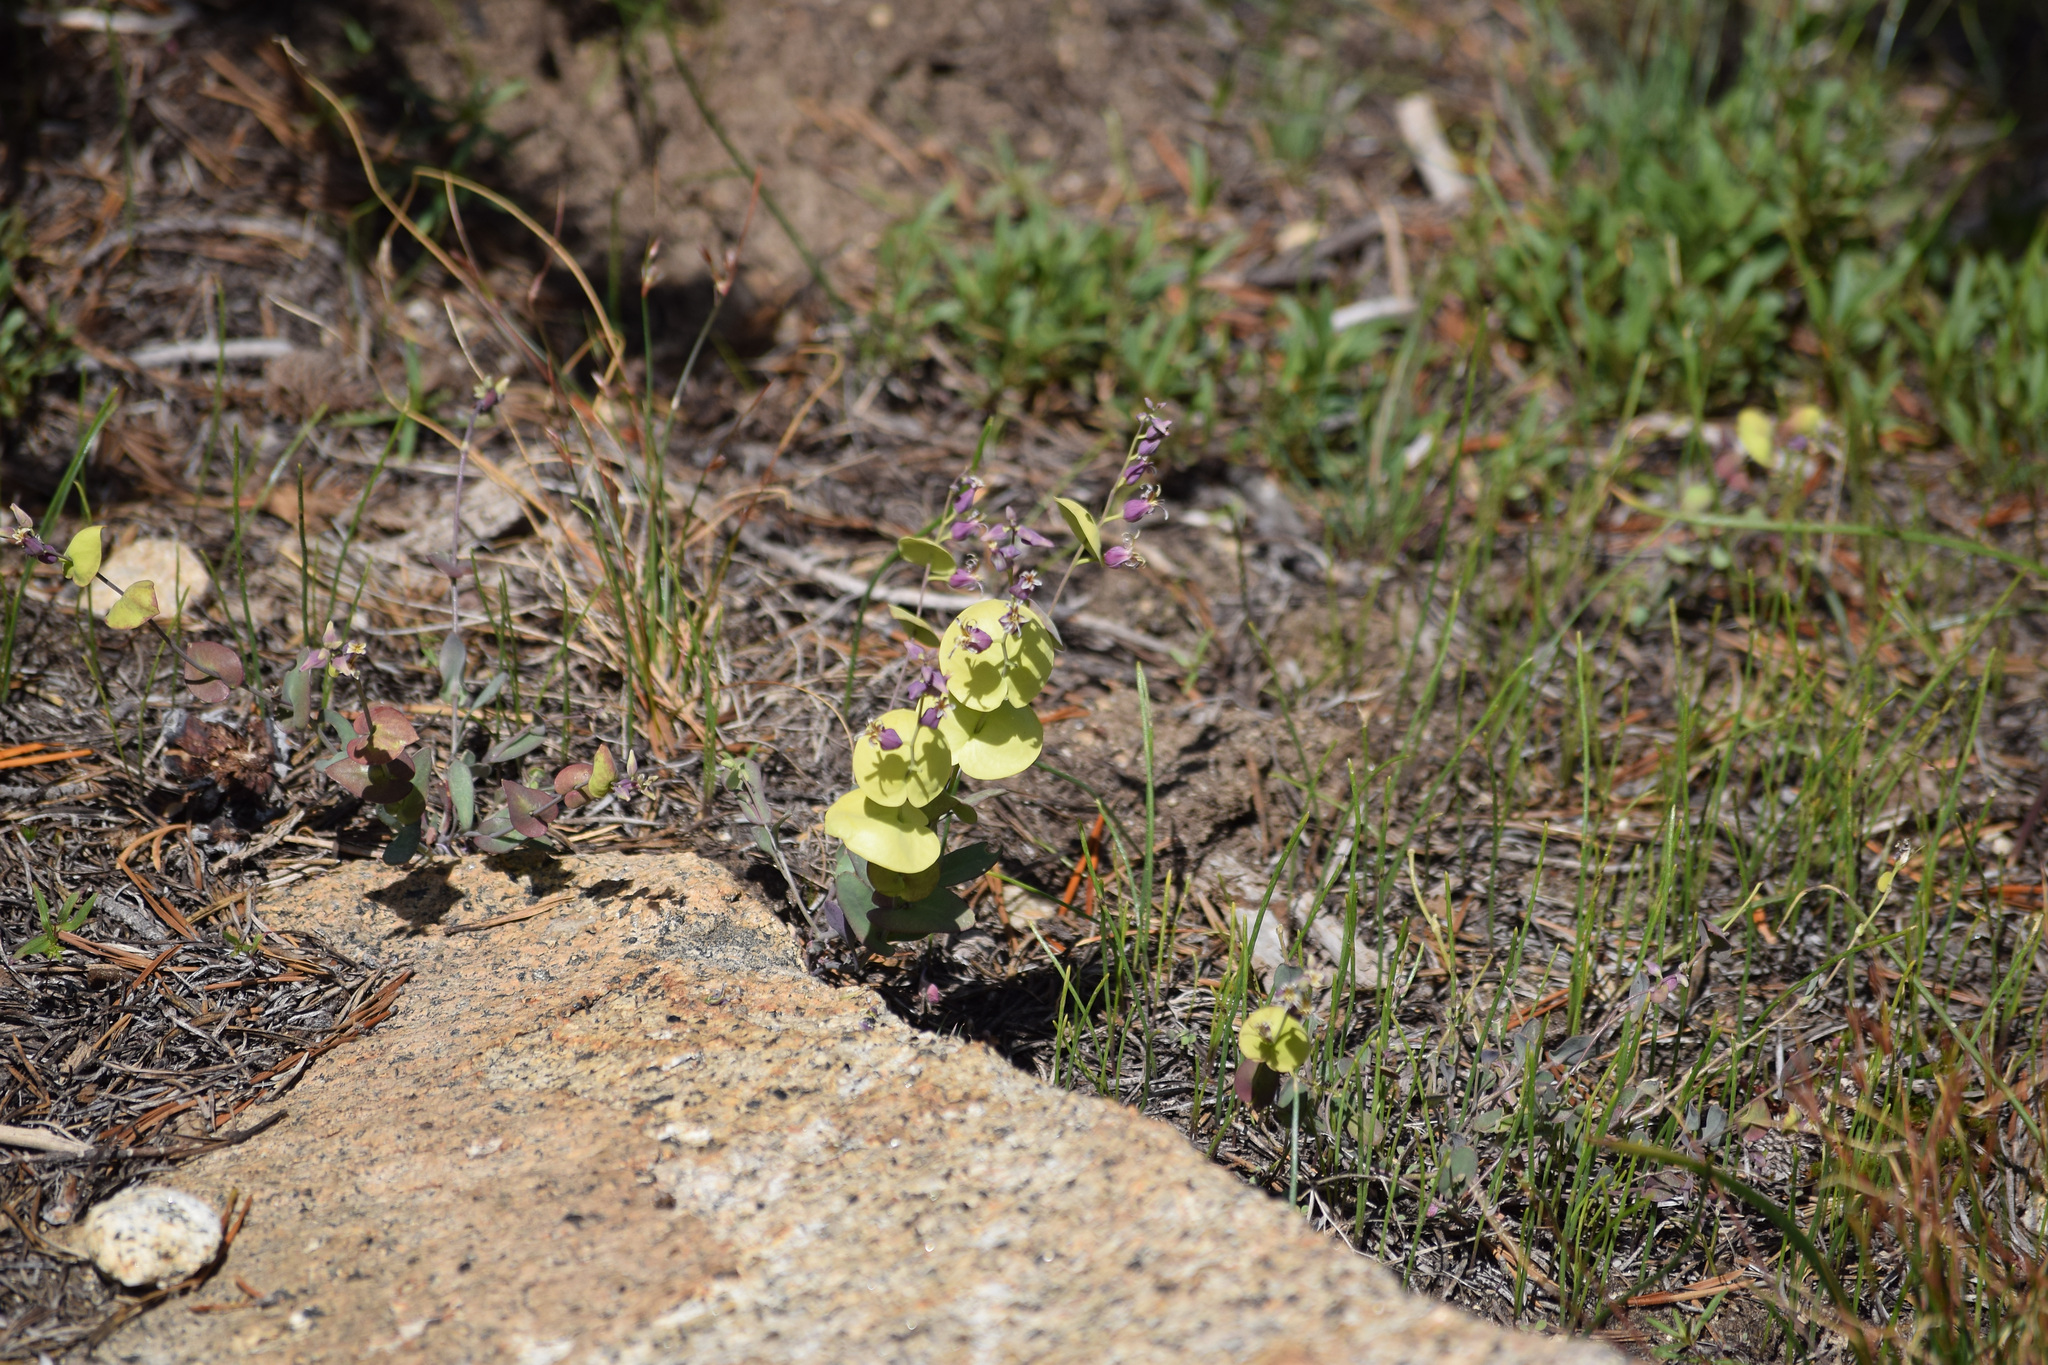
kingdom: Plantae
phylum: Tracheophyta
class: Magnoliopsida
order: Brassicales
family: Brassicaceae
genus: Streptanthus
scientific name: Streptanthus tortuosus
